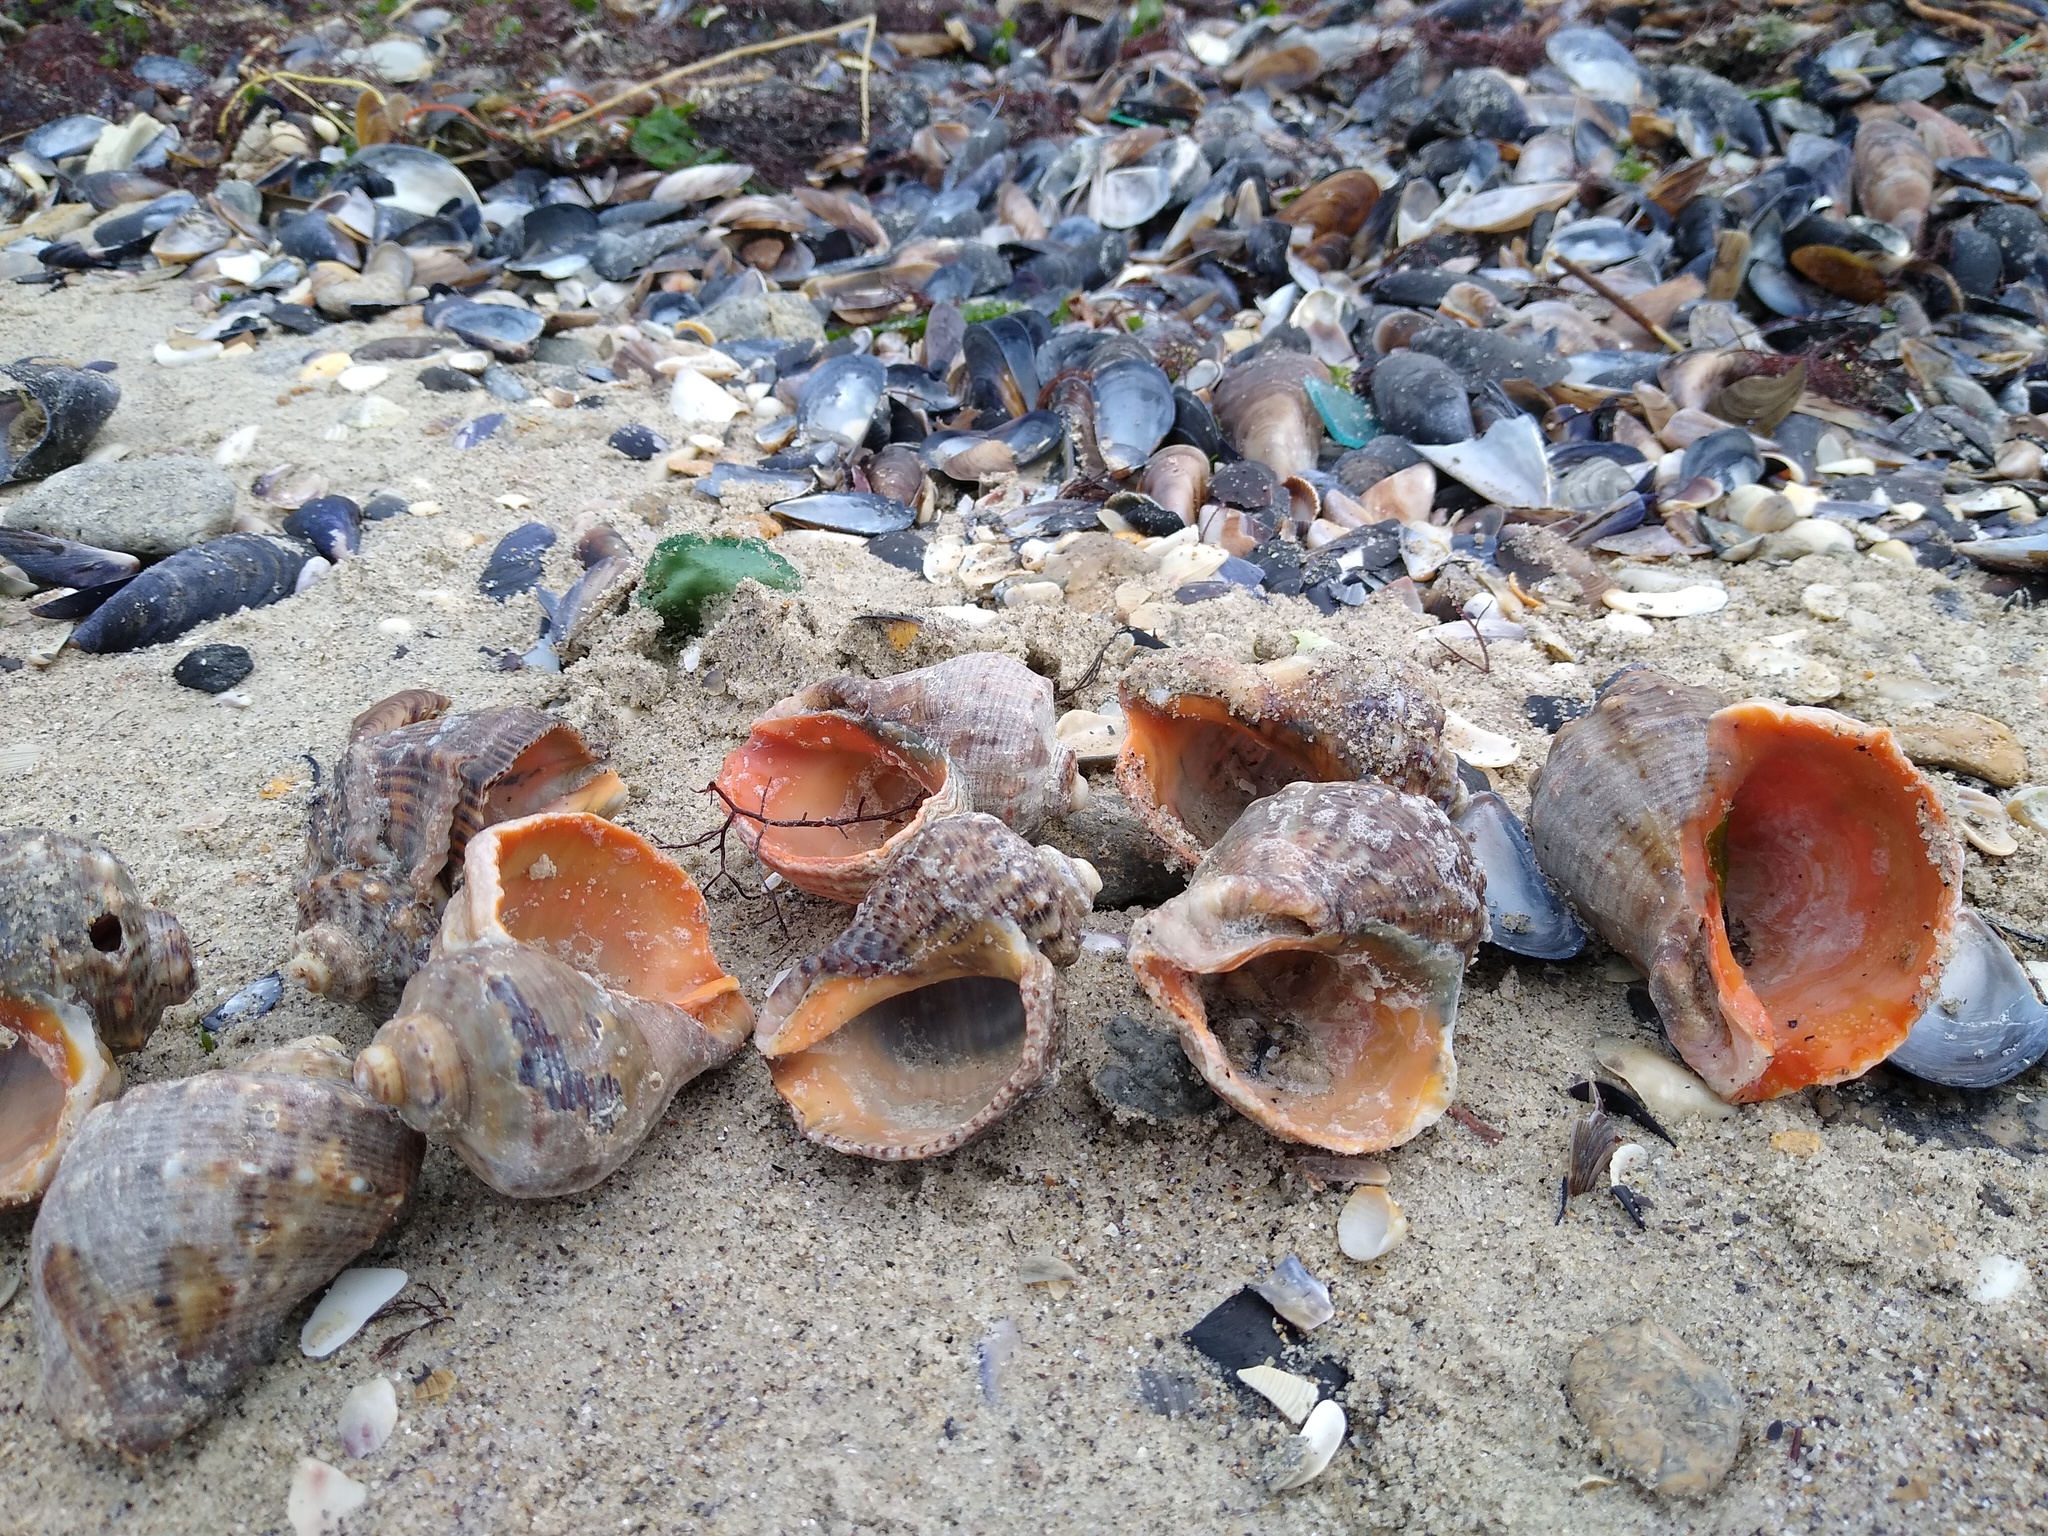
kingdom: Animalia
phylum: Mollusca
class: Gastropoda
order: Neogastropoda
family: Muricidae
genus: Rapana
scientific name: Rapana venosa
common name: Veined rapa whelk
